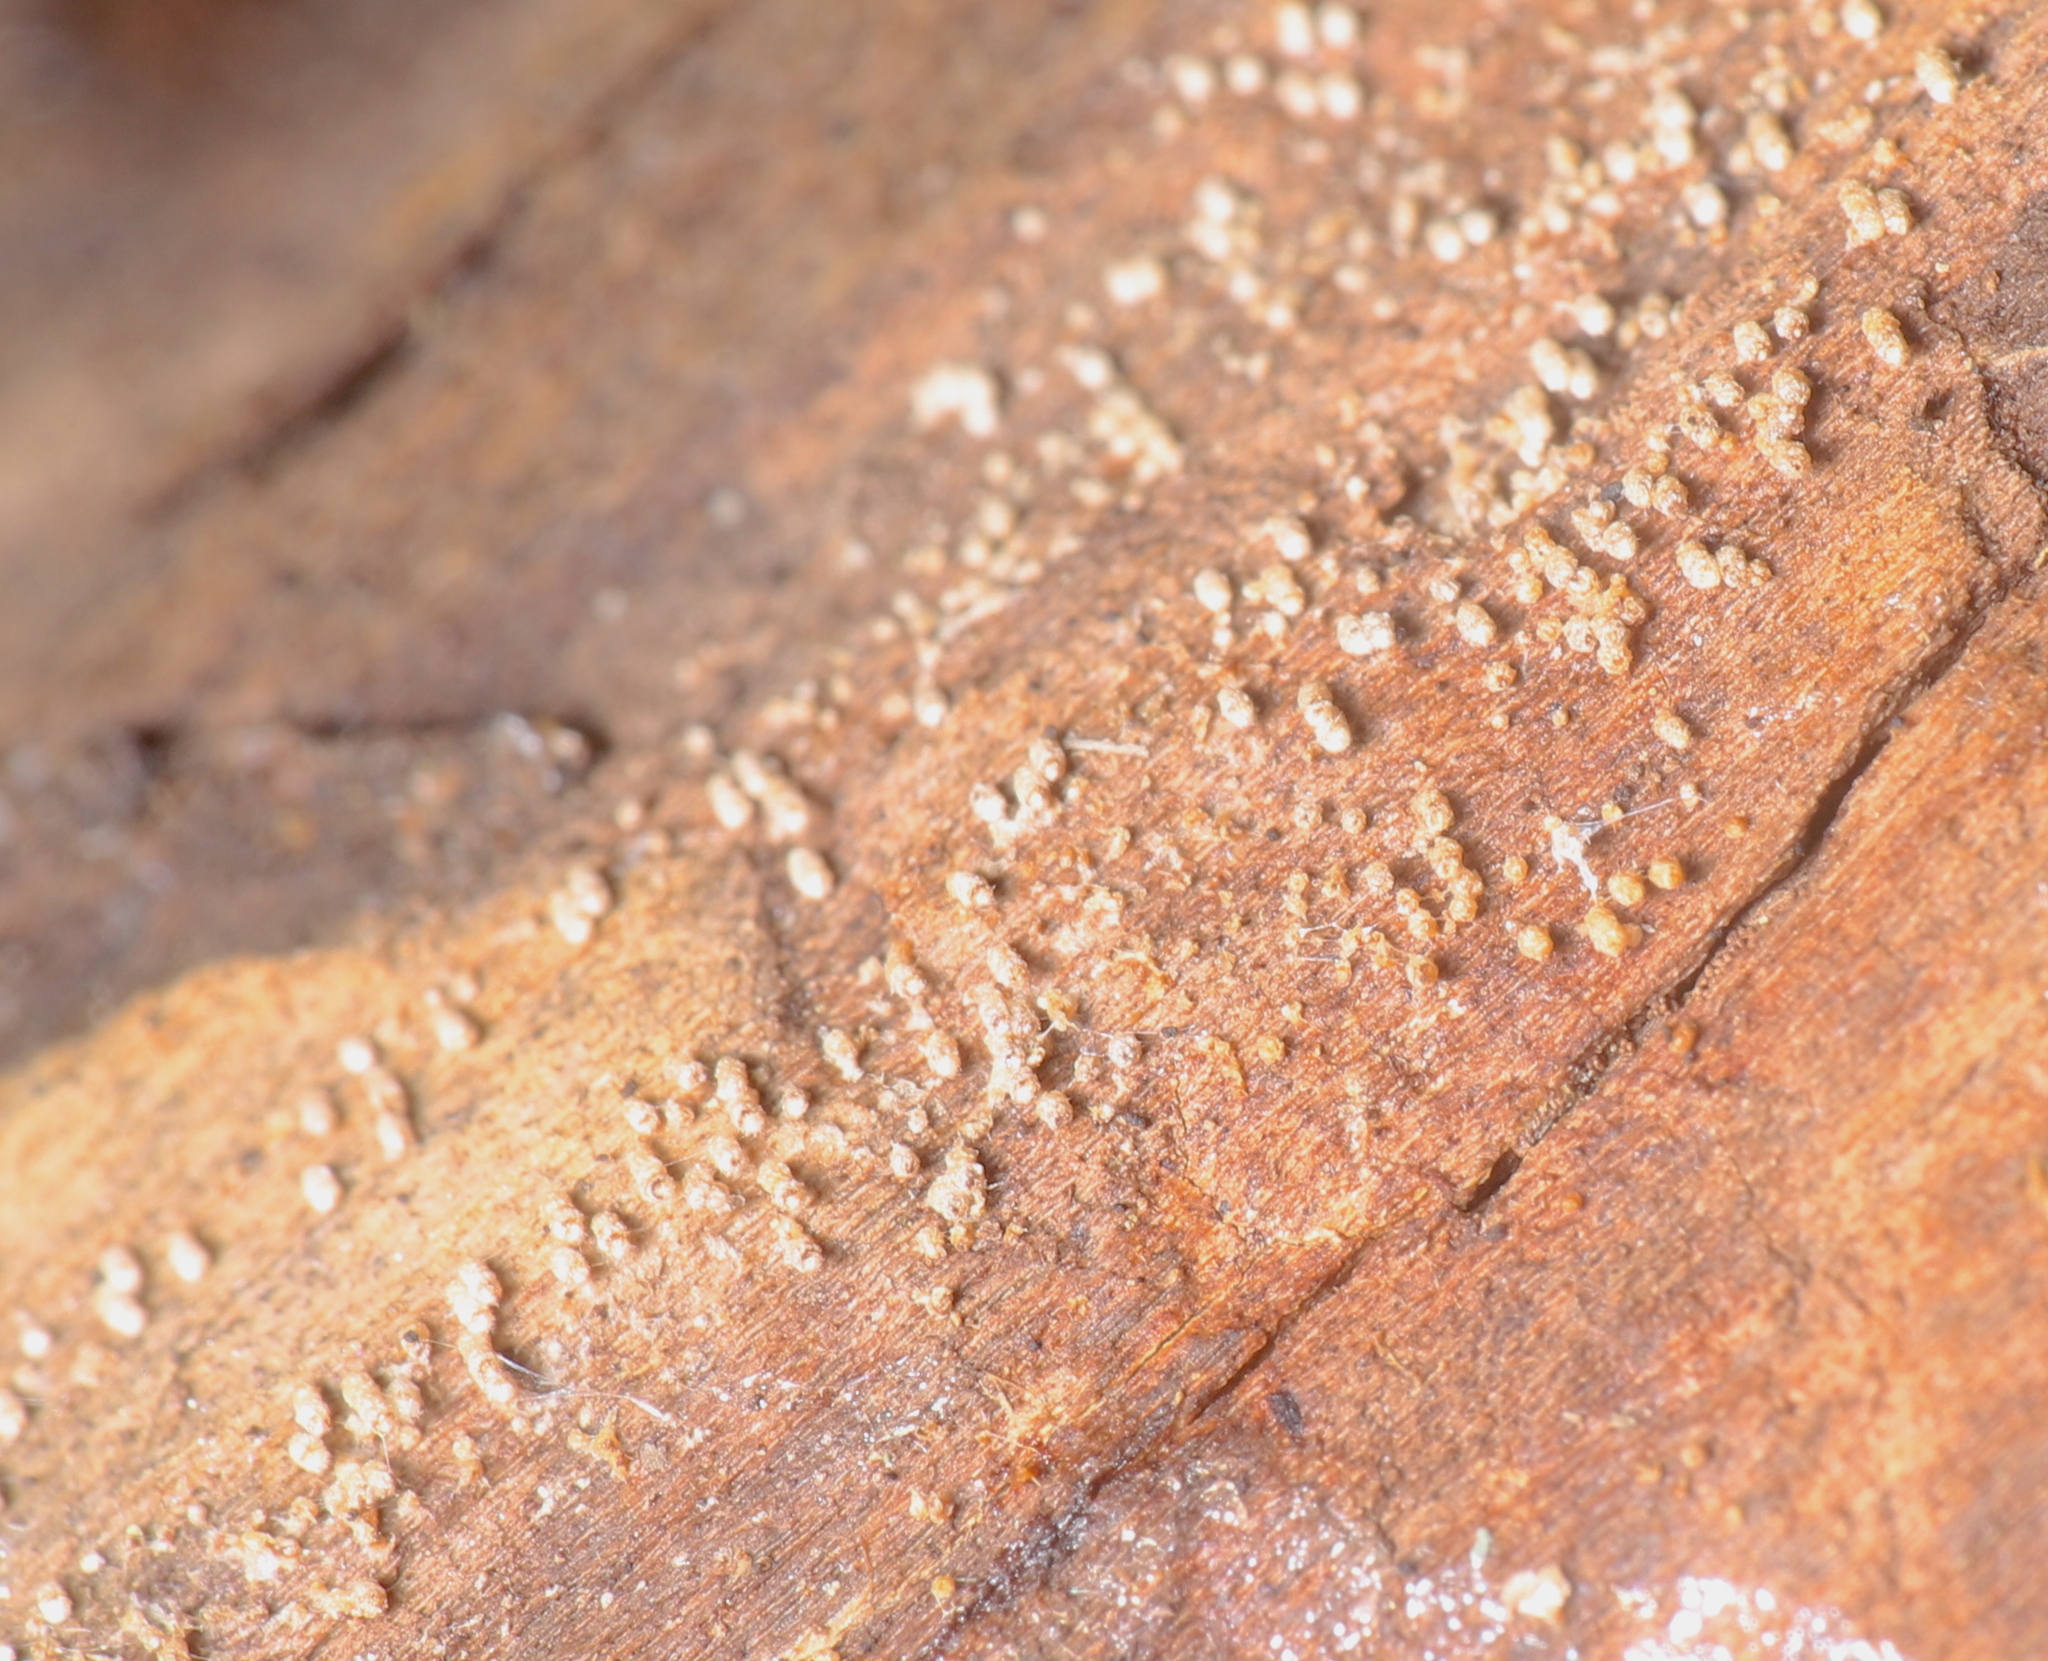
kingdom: Fungi
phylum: Basidiomycota
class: Agaricomycetes
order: Agaricales
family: Marasmiaceae
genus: Henningsomyces
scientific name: Henningsomyces candidus
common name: White tubelet
